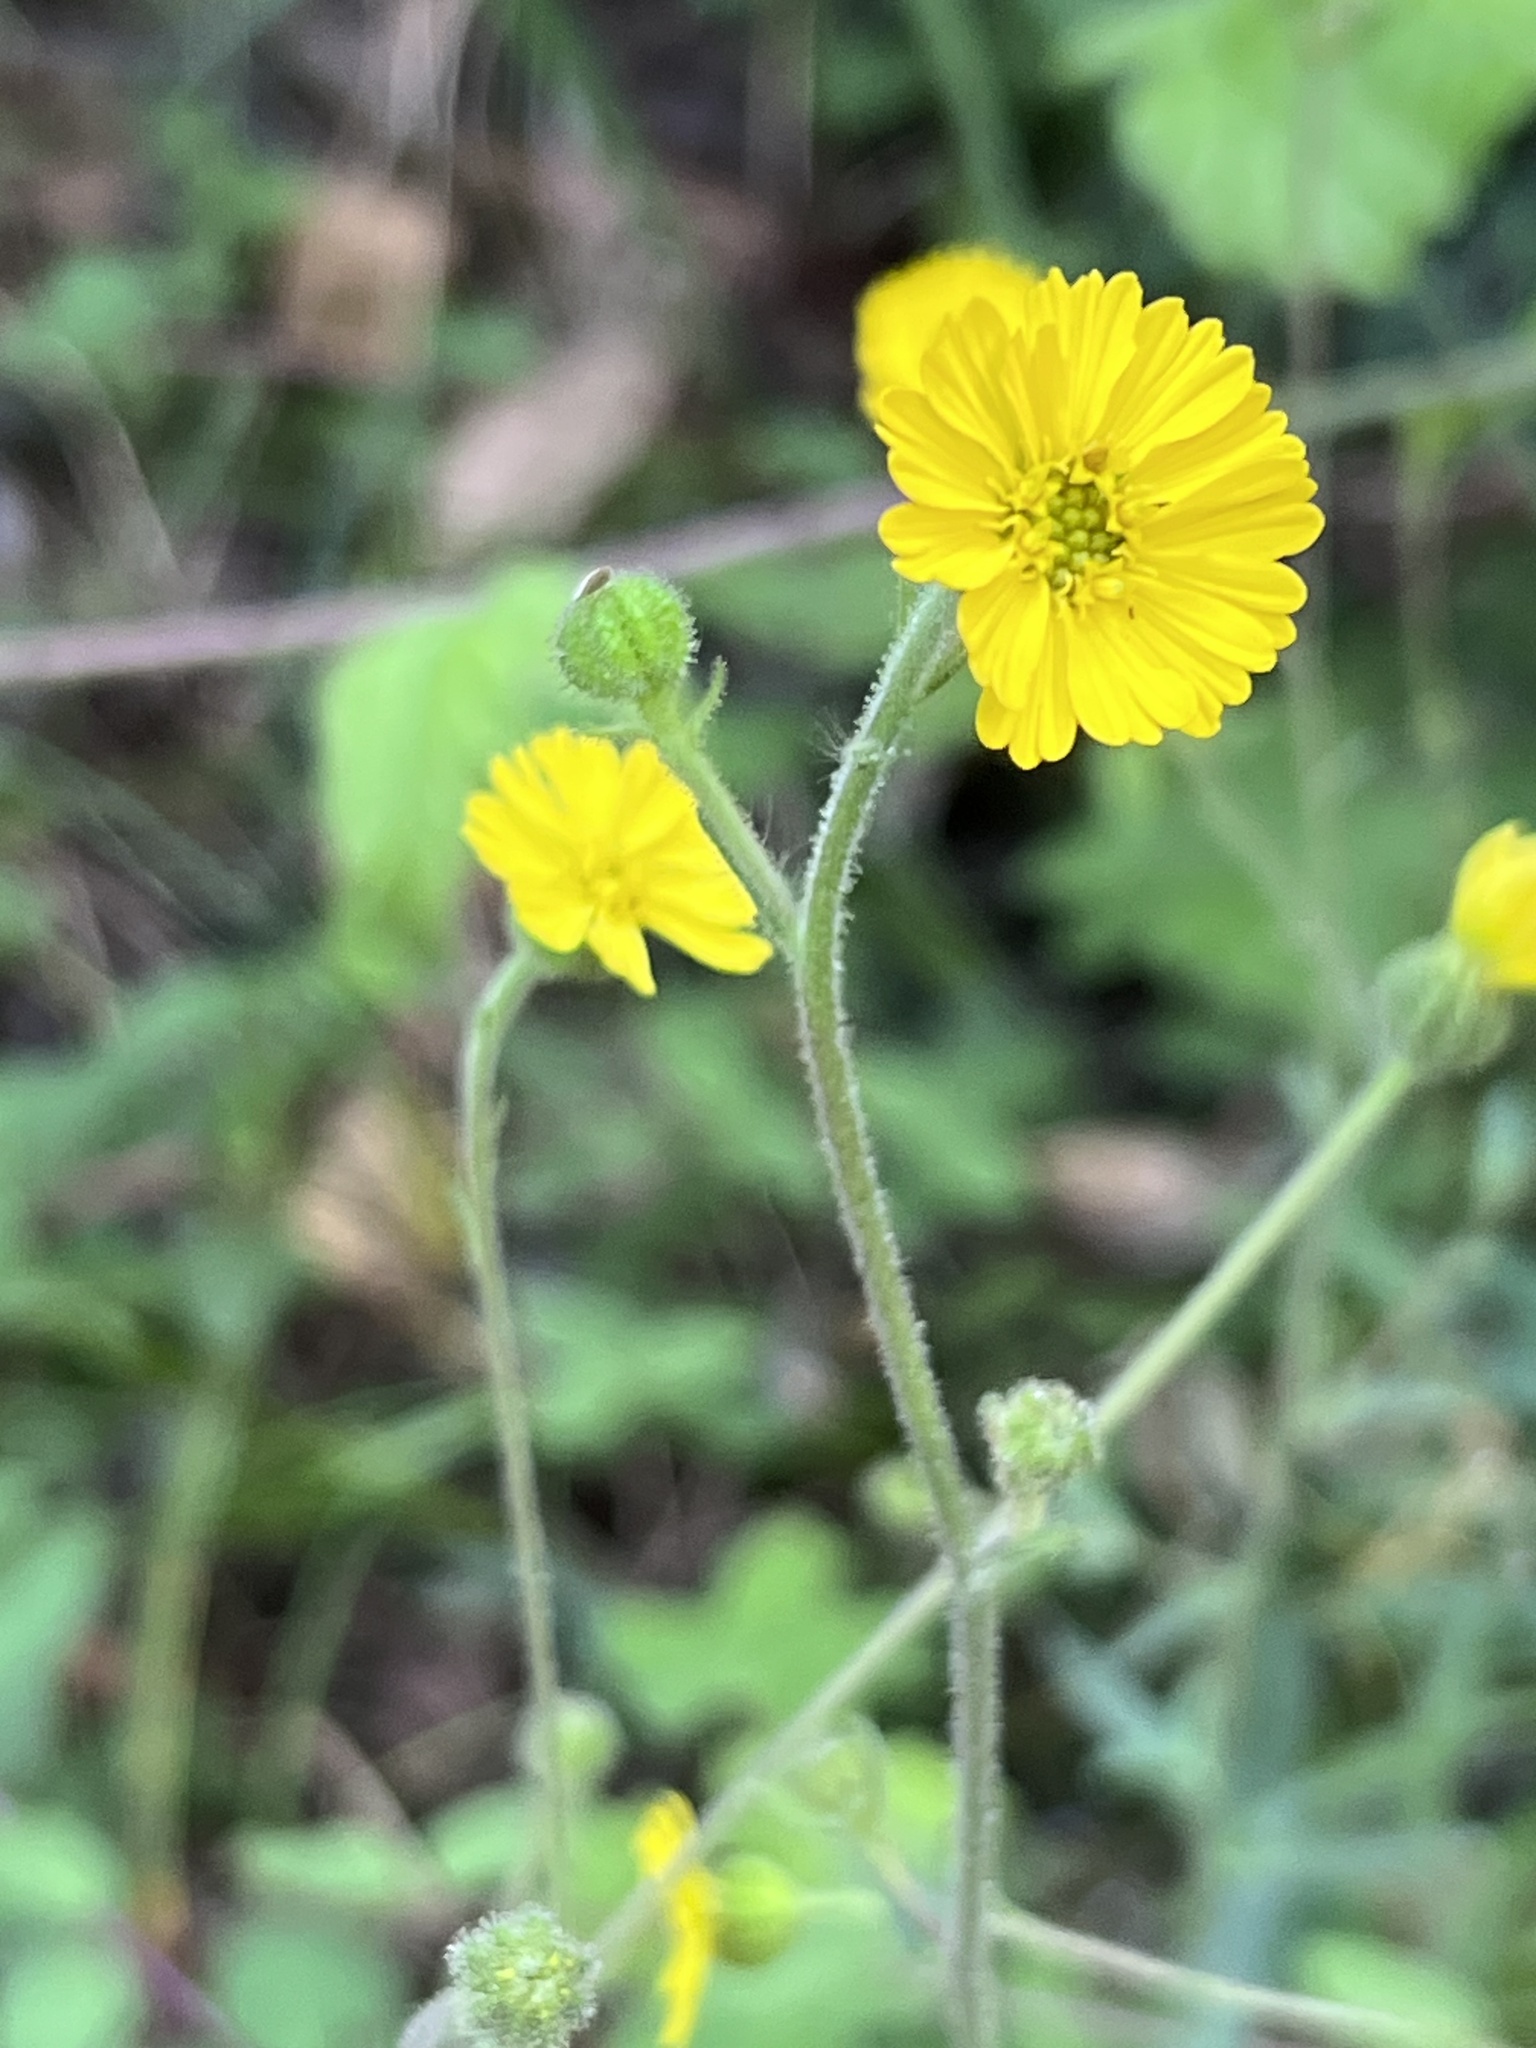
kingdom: Plantae
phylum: Tracheophyta
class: Magnoliopsida
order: Asterales
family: Asteraceae
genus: Anisocarpus
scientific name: Anisocarpus madioides
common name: Woodland madia
